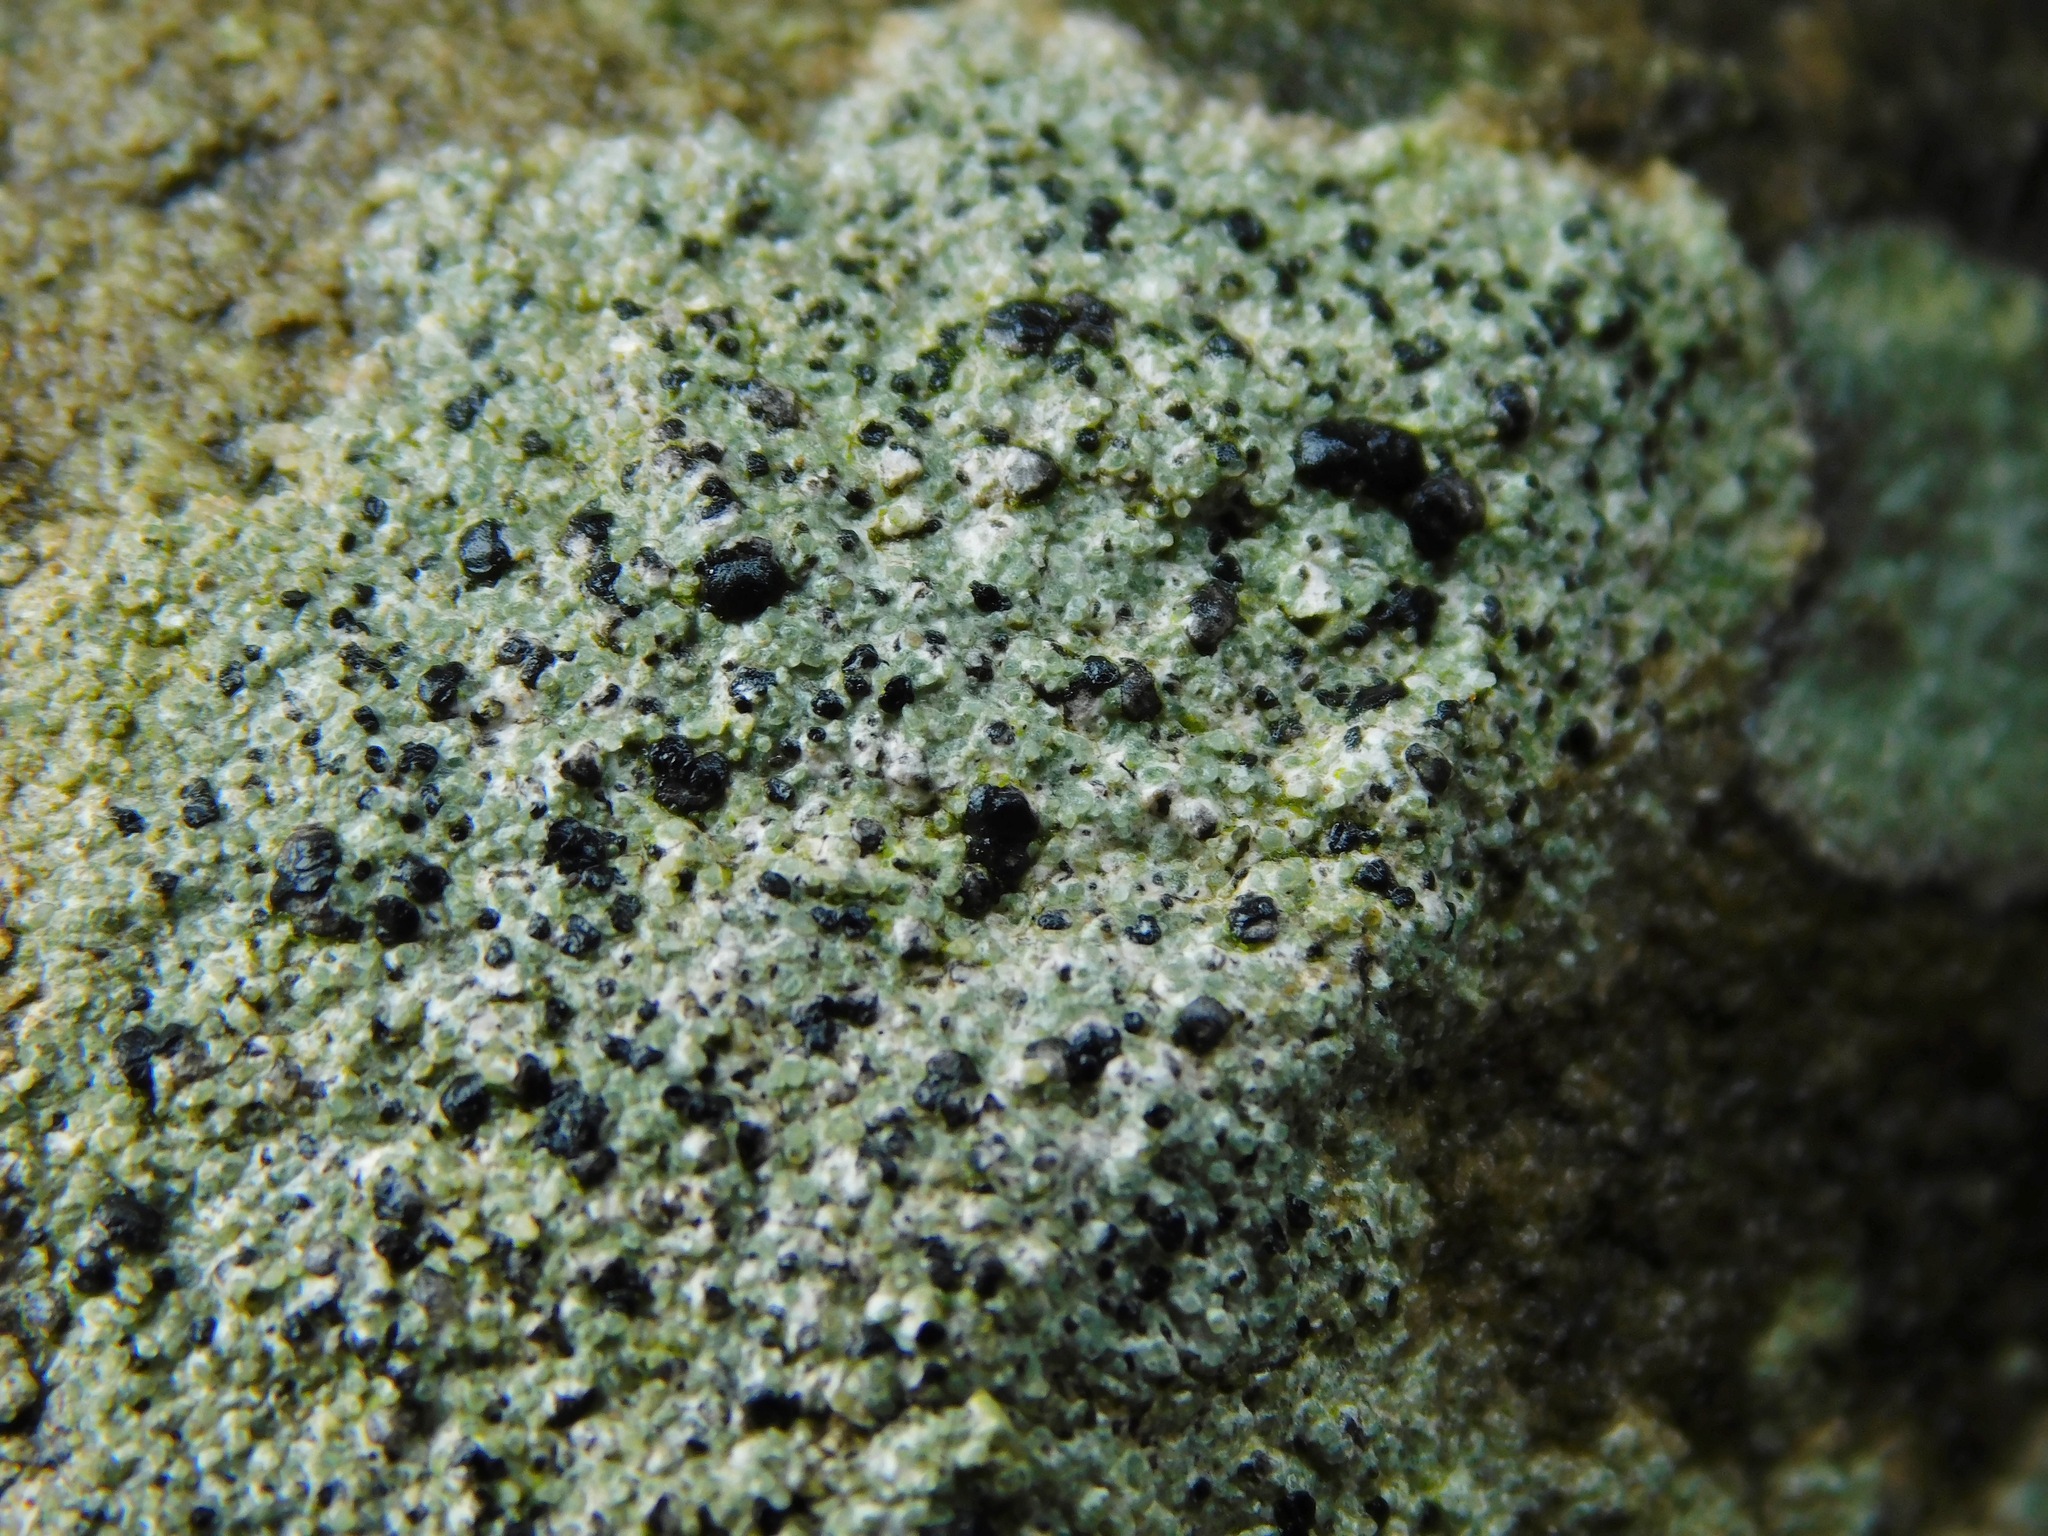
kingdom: Fungi
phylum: Ascomycota
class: Lecanoromycetes
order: Lecanorales
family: Lecanoraceae
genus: Lecidella
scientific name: Lecidella stigmatea
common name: Limestone disc lichen
